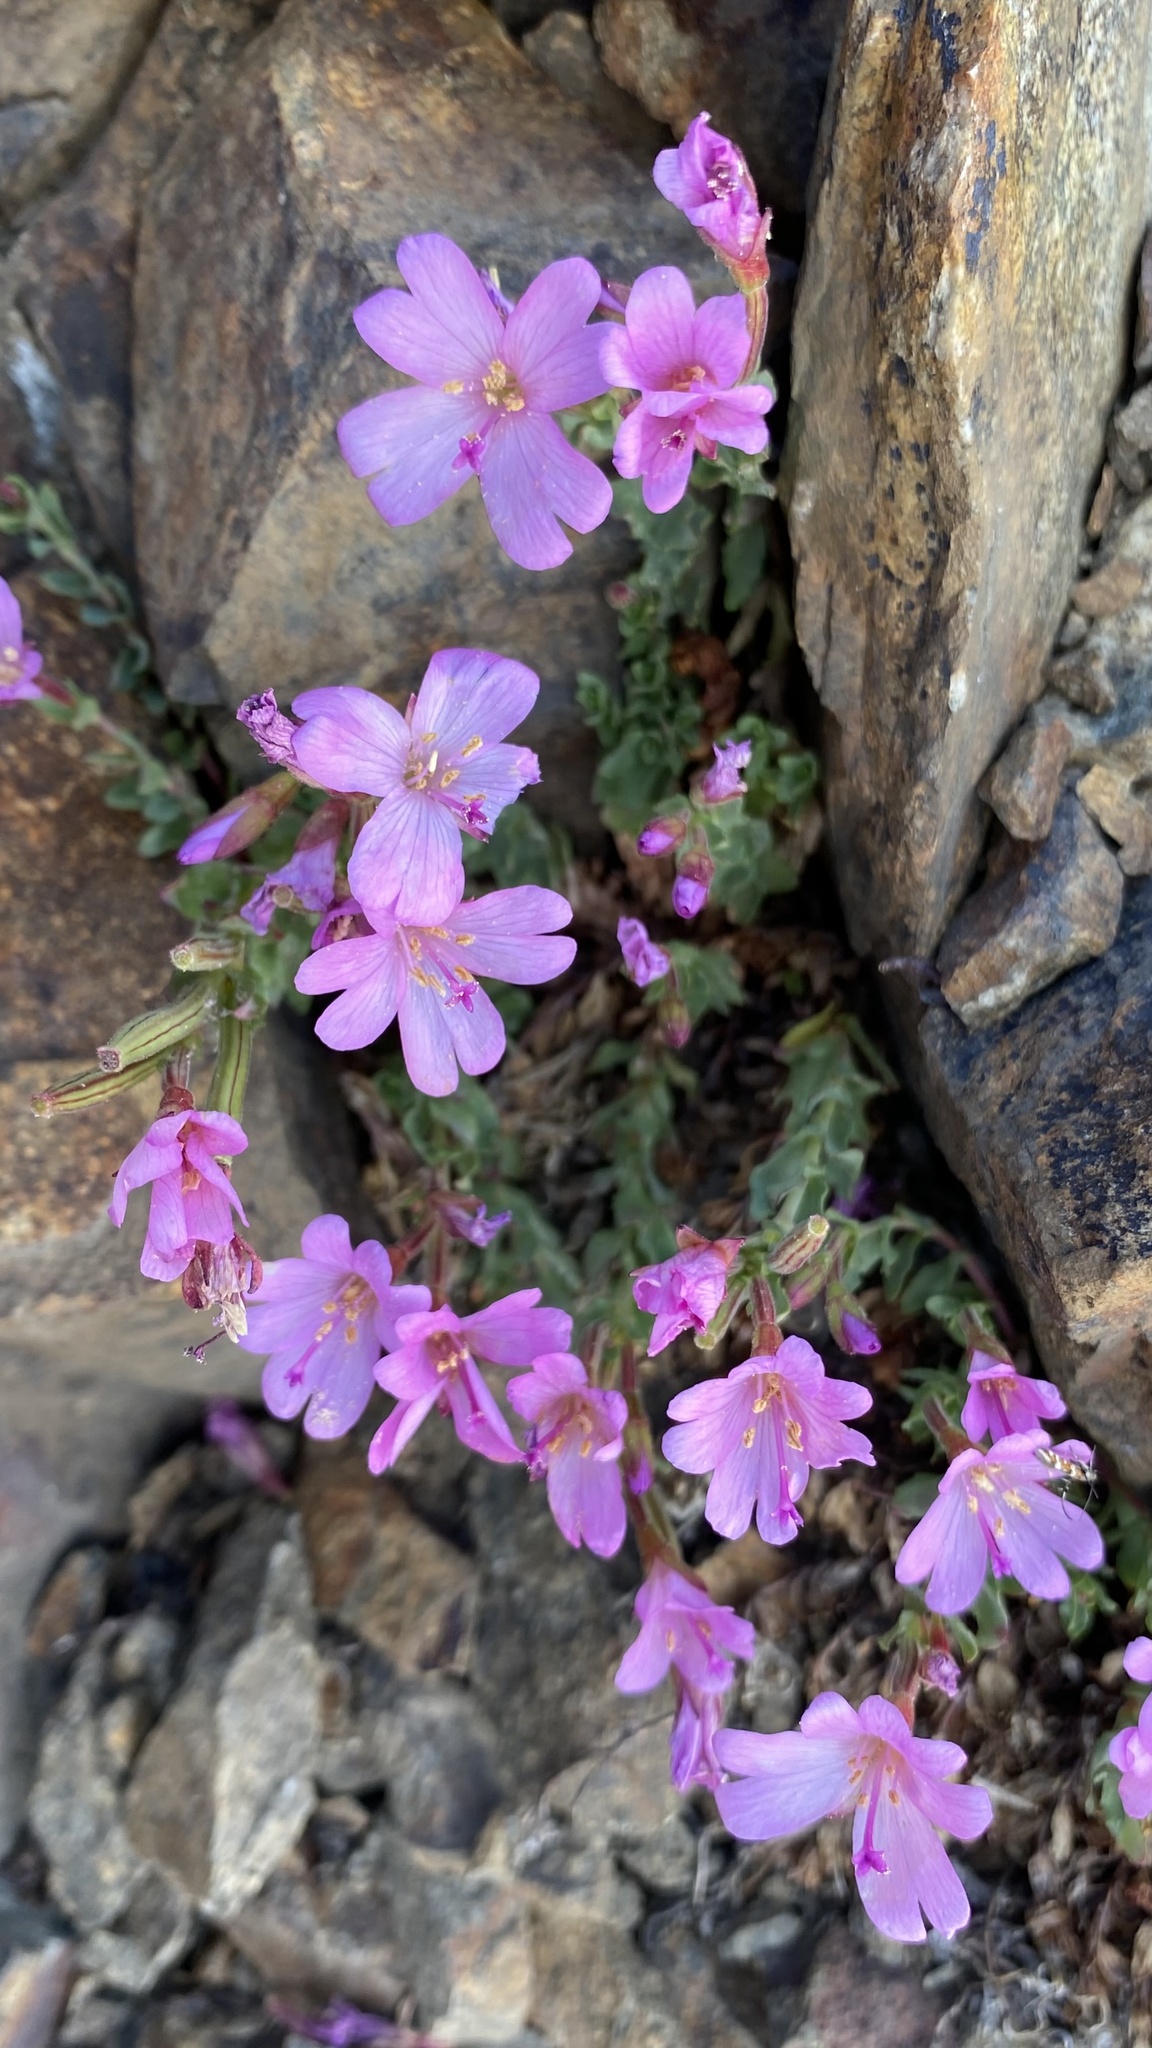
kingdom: Plantae
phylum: Tracheophyta
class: Magnoliopsida
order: Myrtales
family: Onagraceae
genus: Epilobium
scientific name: Epilobium obcordatum
